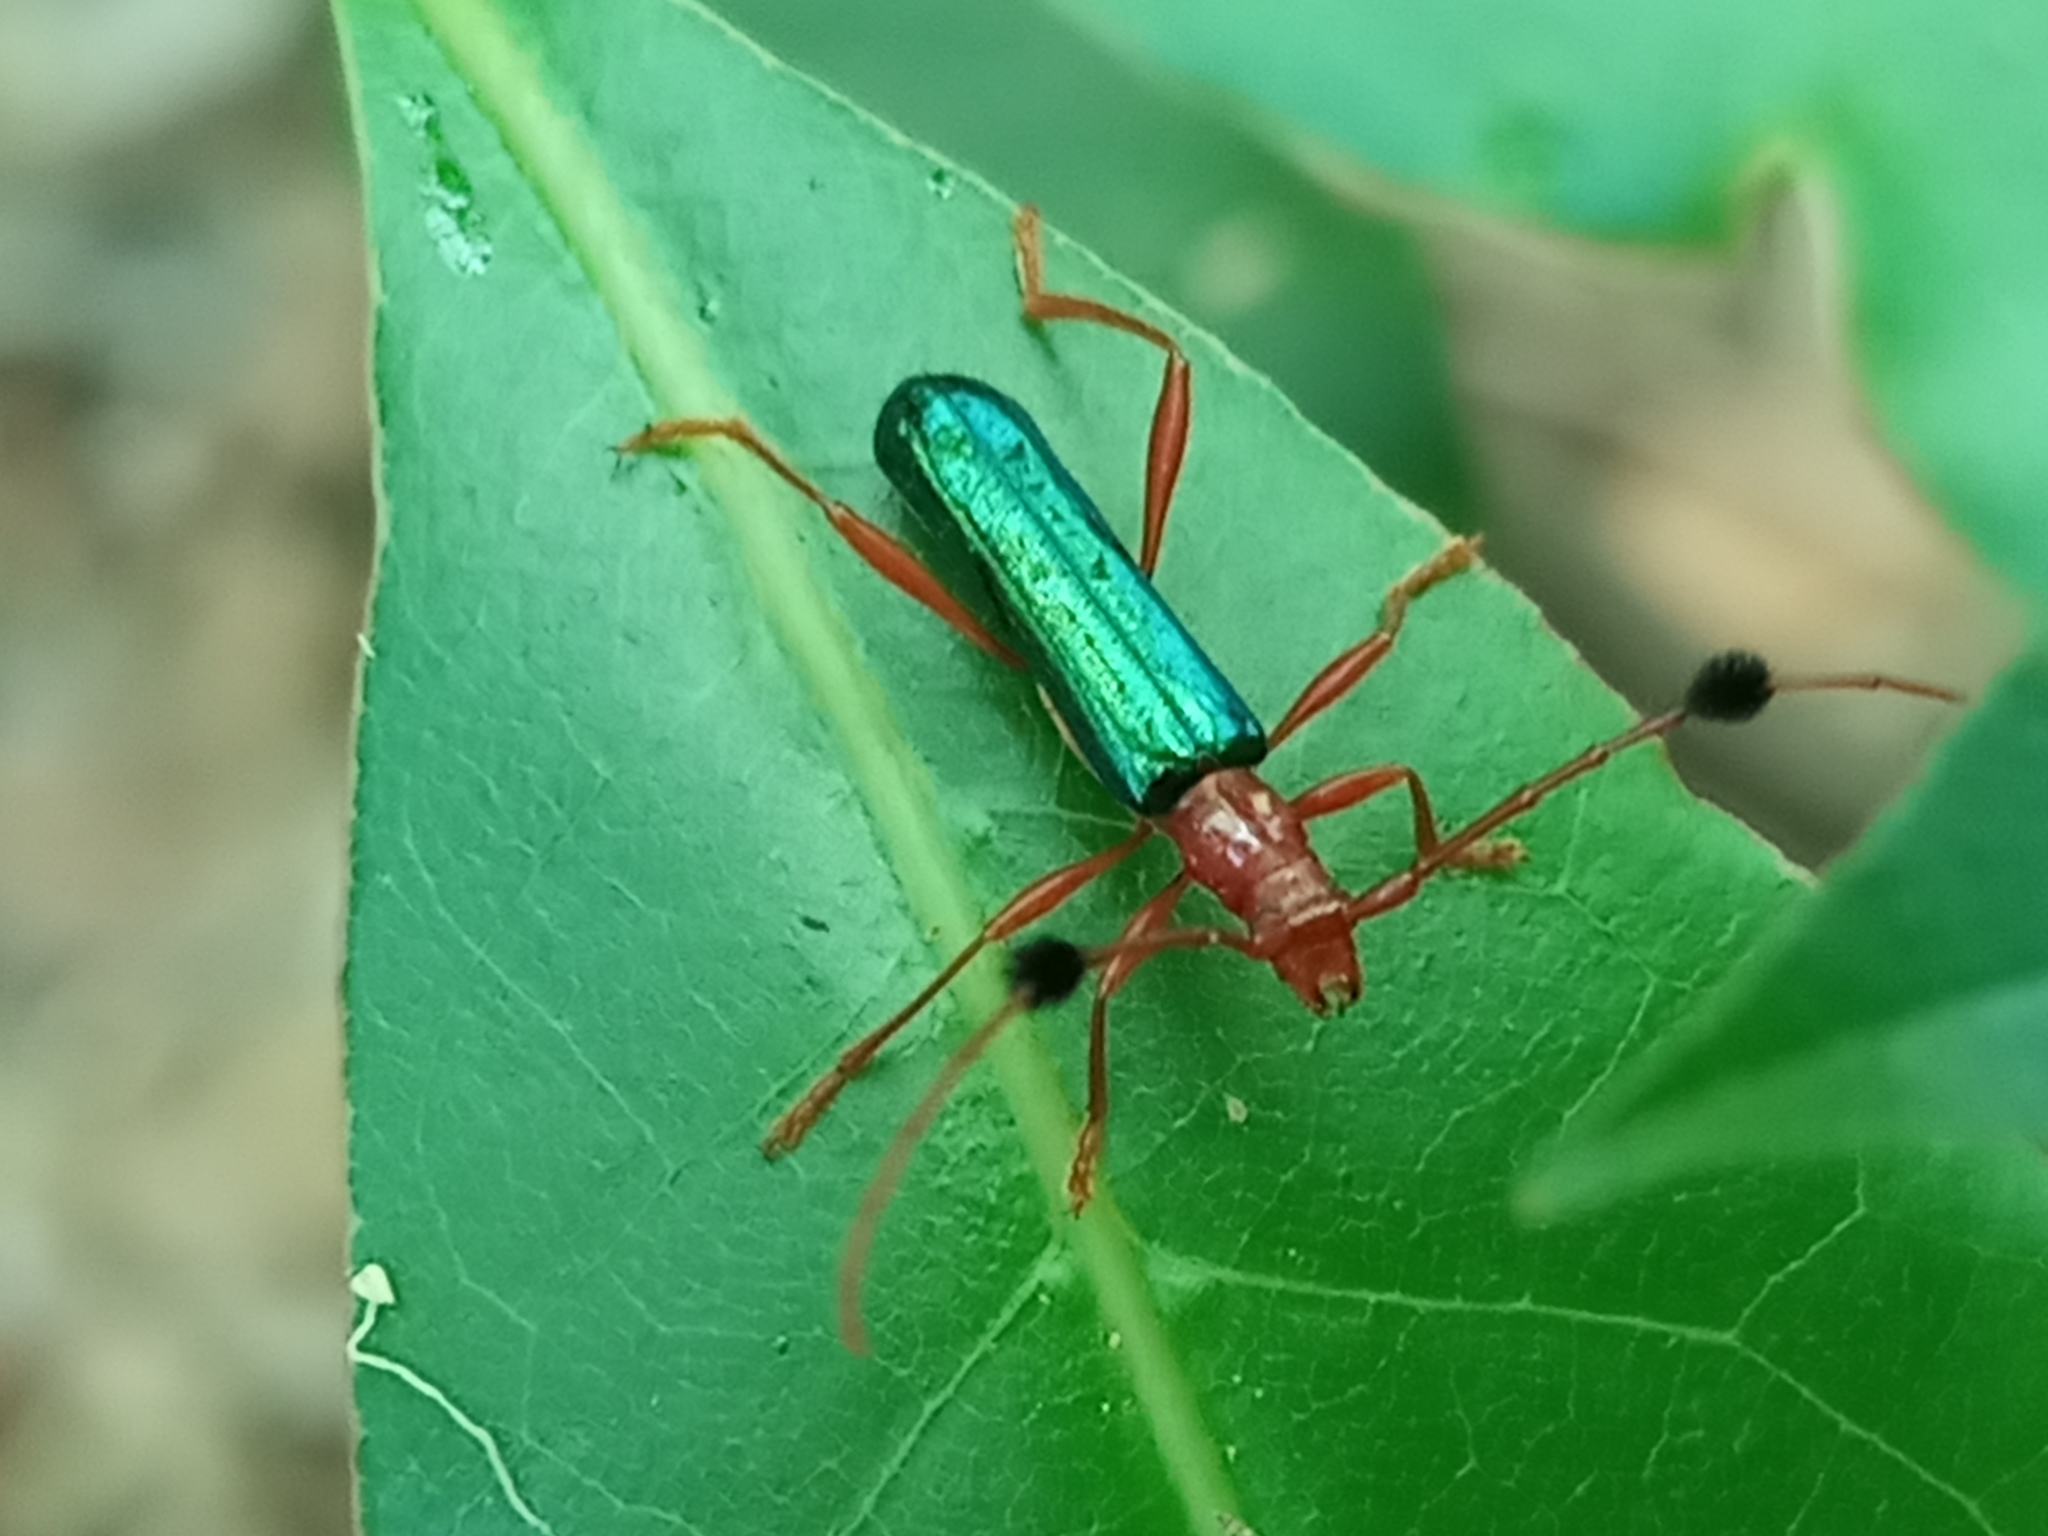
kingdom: Animalia
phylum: Arthropoda
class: Insecta
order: Coleoptera
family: Cerambycidae
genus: Paromoeocerus
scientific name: Paromoeocerus barbicornis
